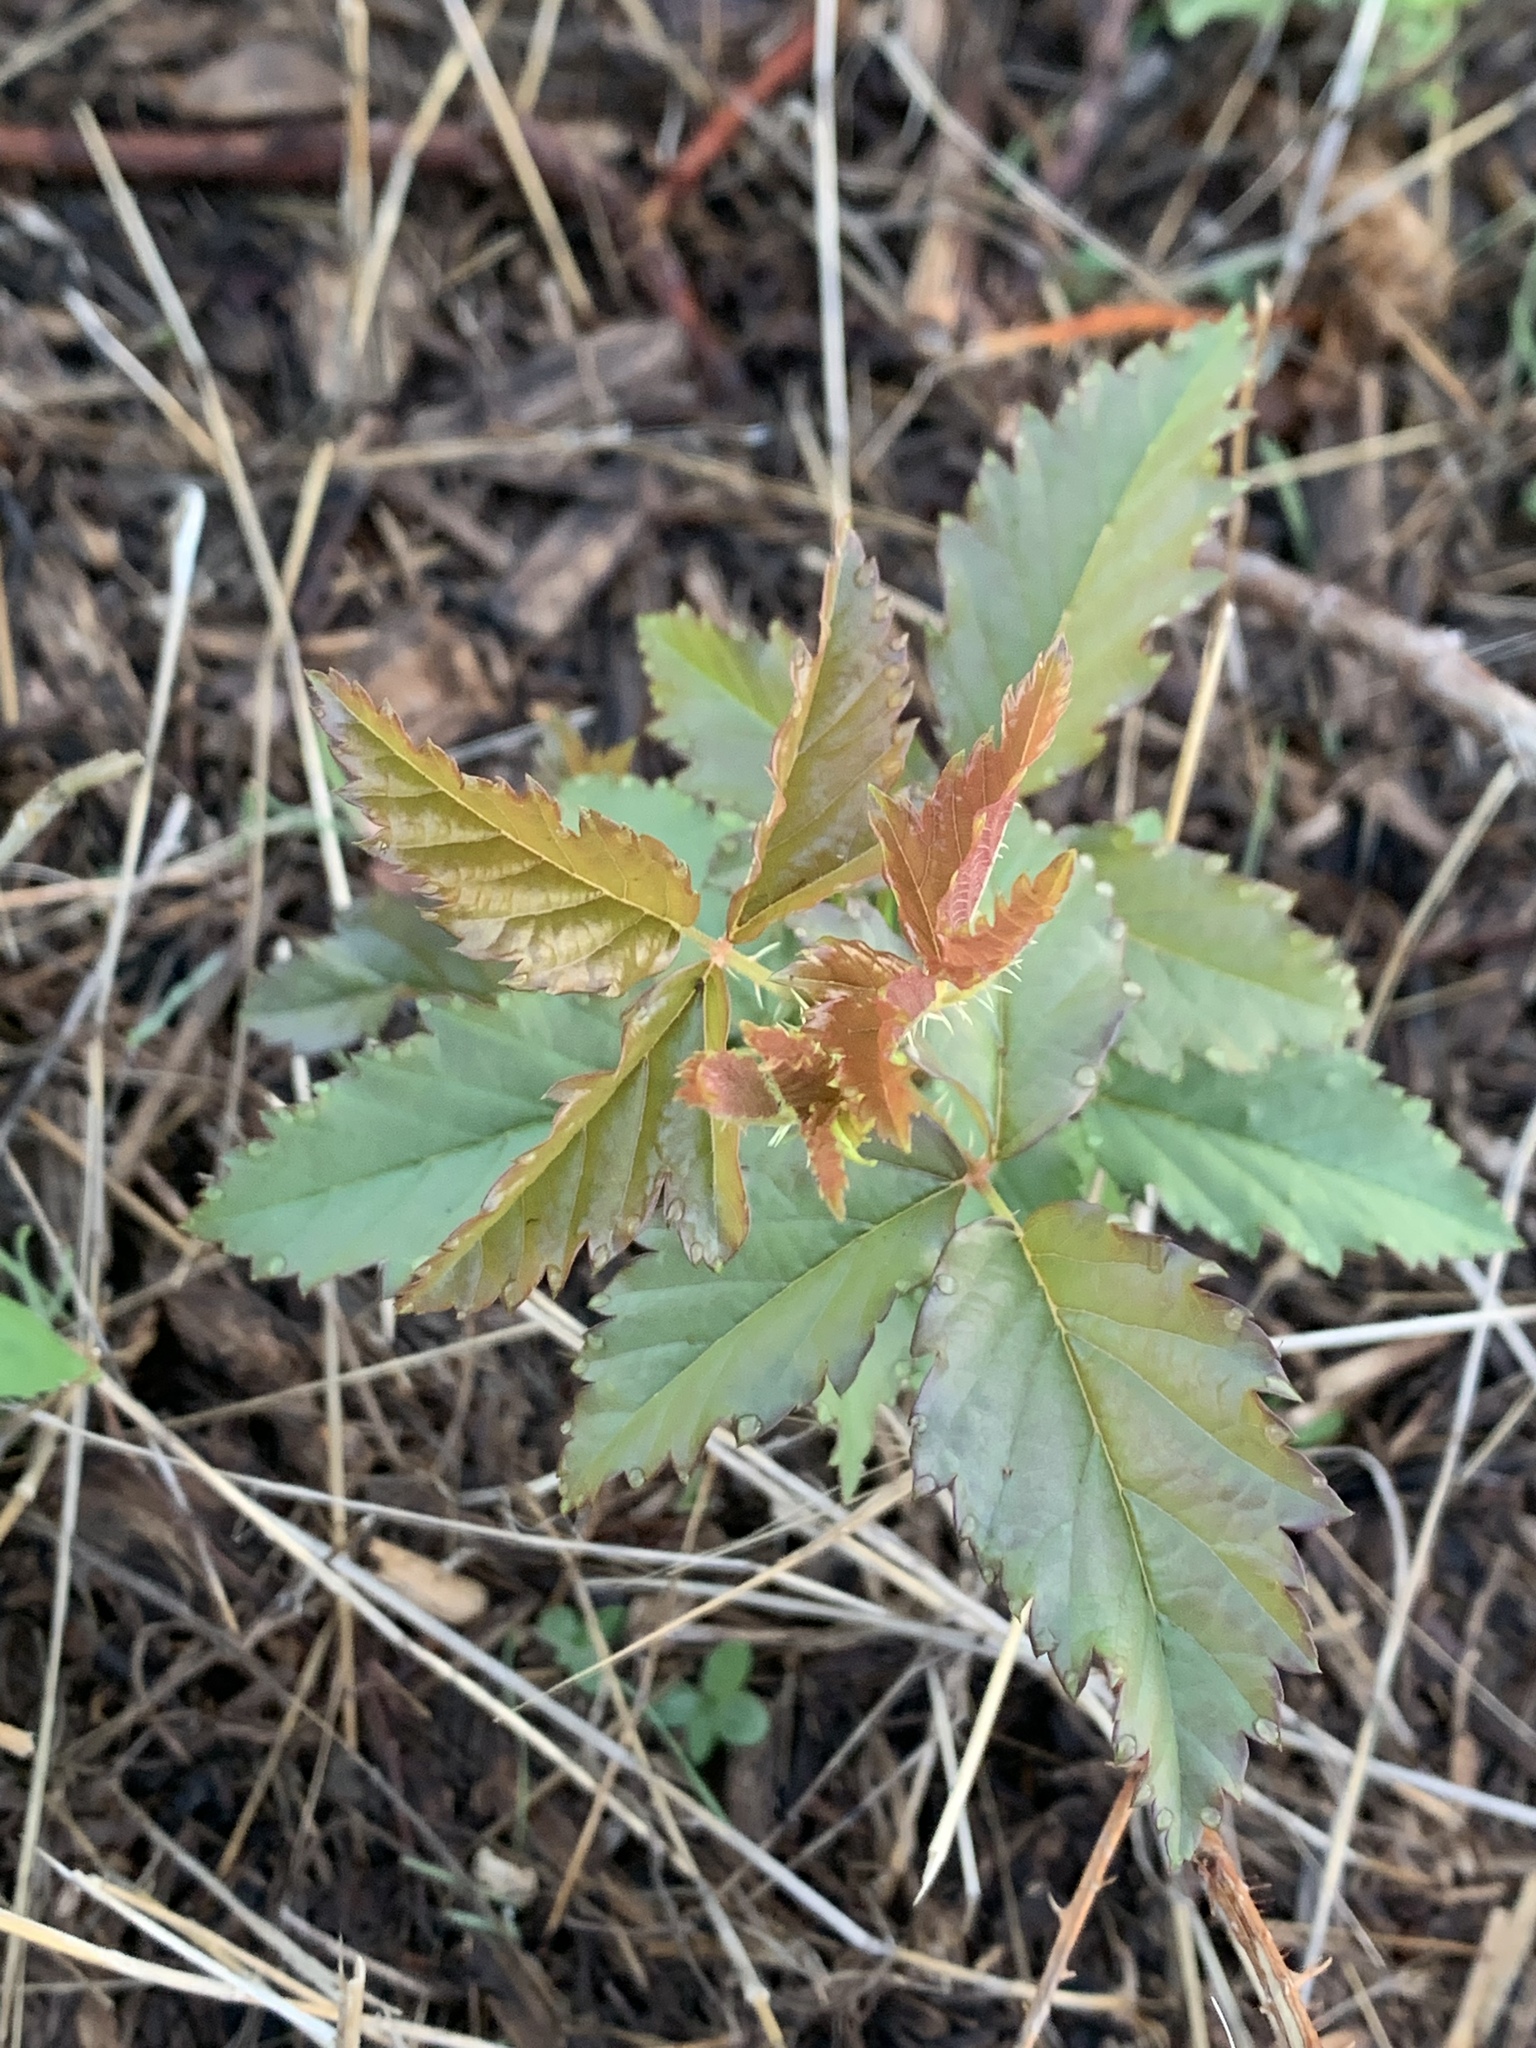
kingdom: Plantae
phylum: Tracheophyta
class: Magnoliopsida
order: Rosales
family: Rosaceae
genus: Rubus
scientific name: Rubus trivialis
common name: Southern dewberry
